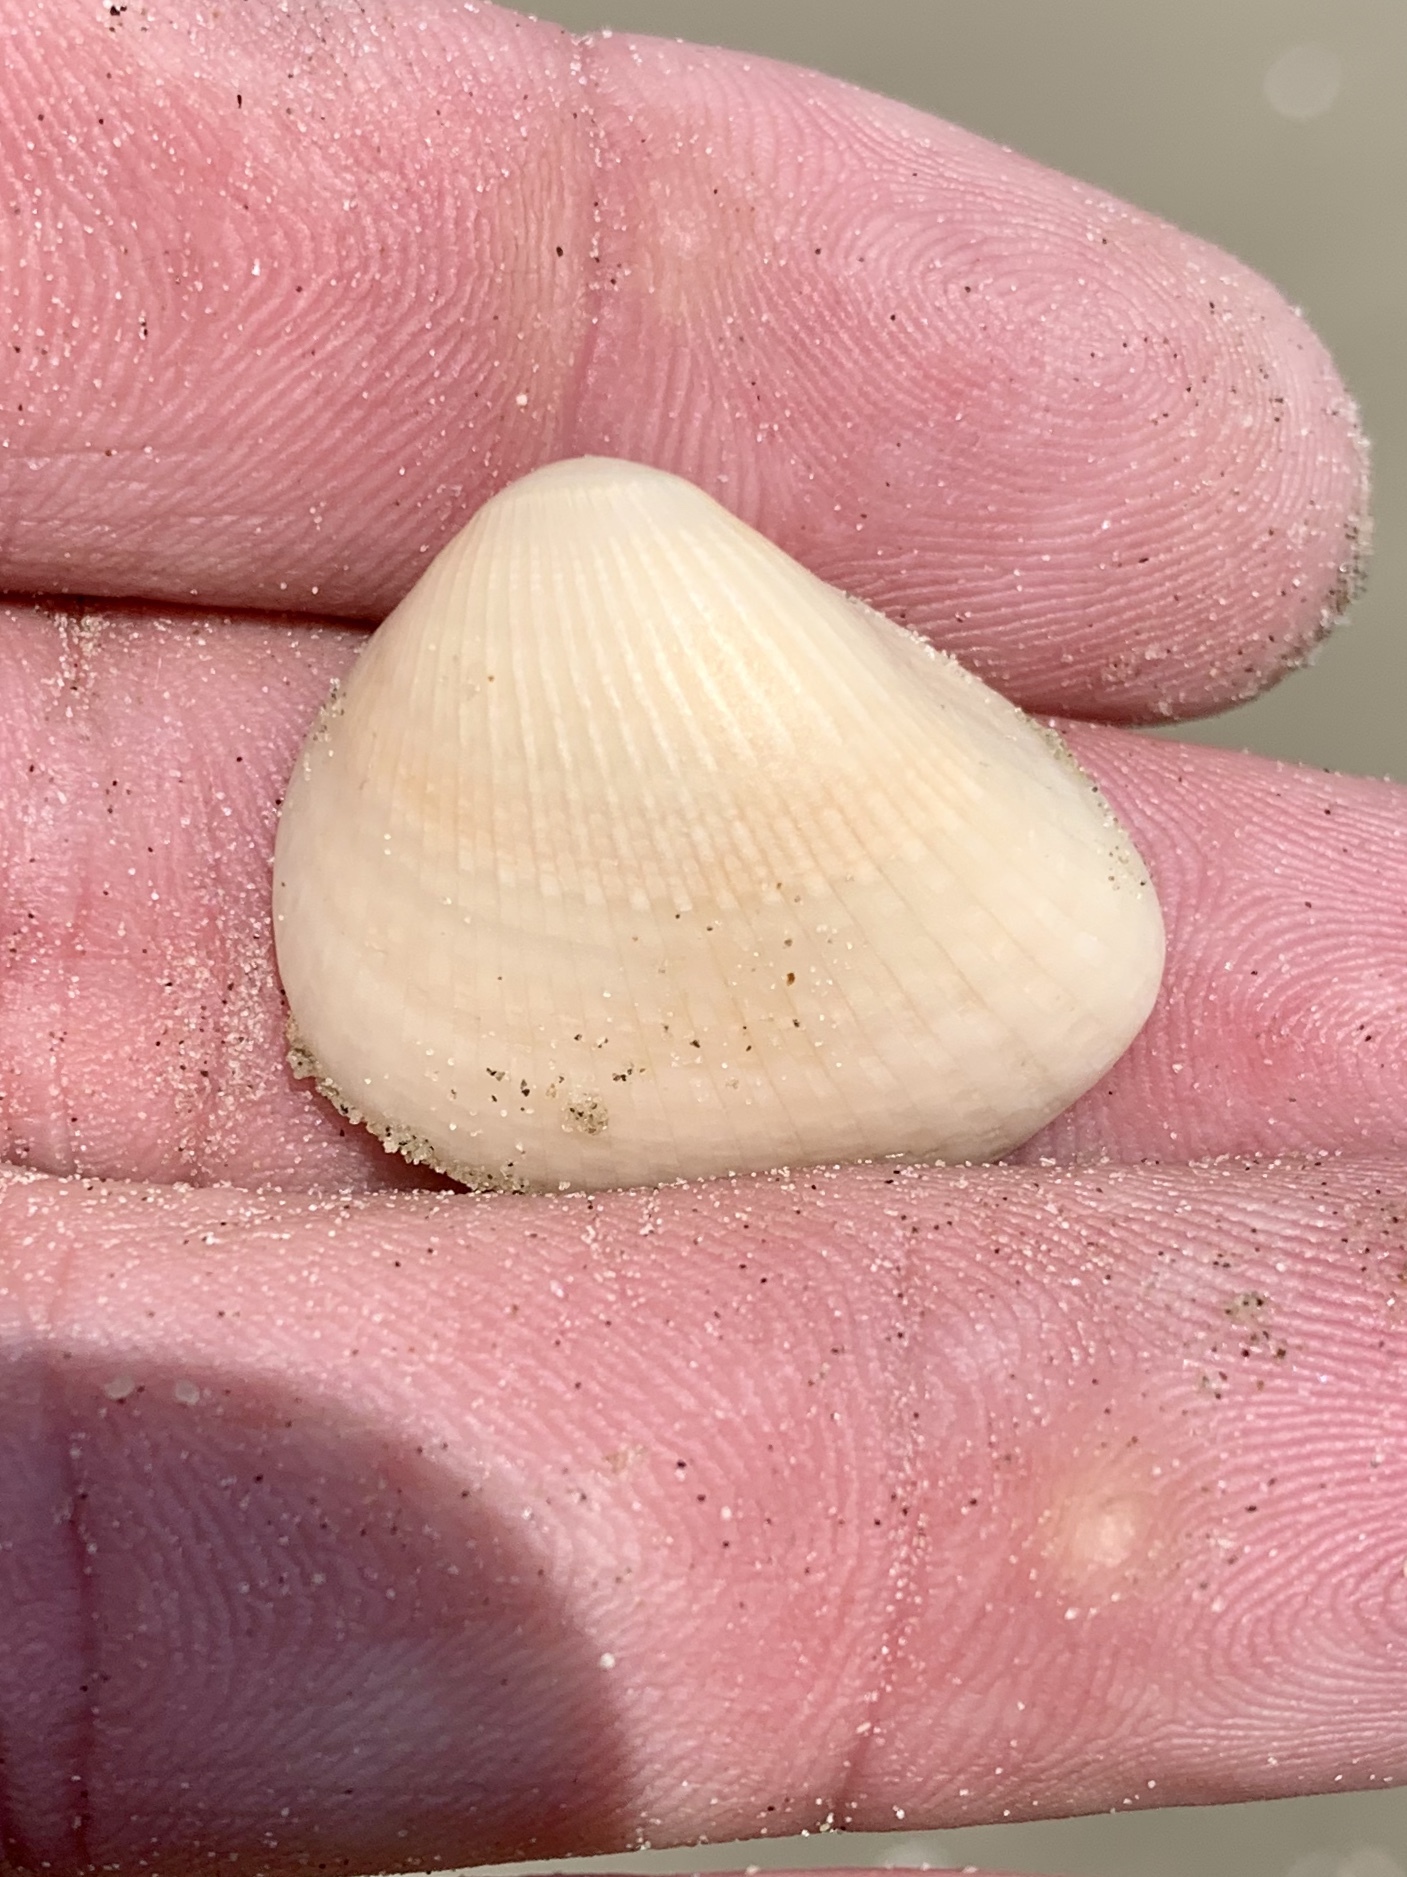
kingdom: Animalia
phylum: Mollusca
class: Bivalvia
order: Arcida
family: Noetiidae
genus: Noetia
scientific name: Noetia ponderosa
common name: Ponderous ark
